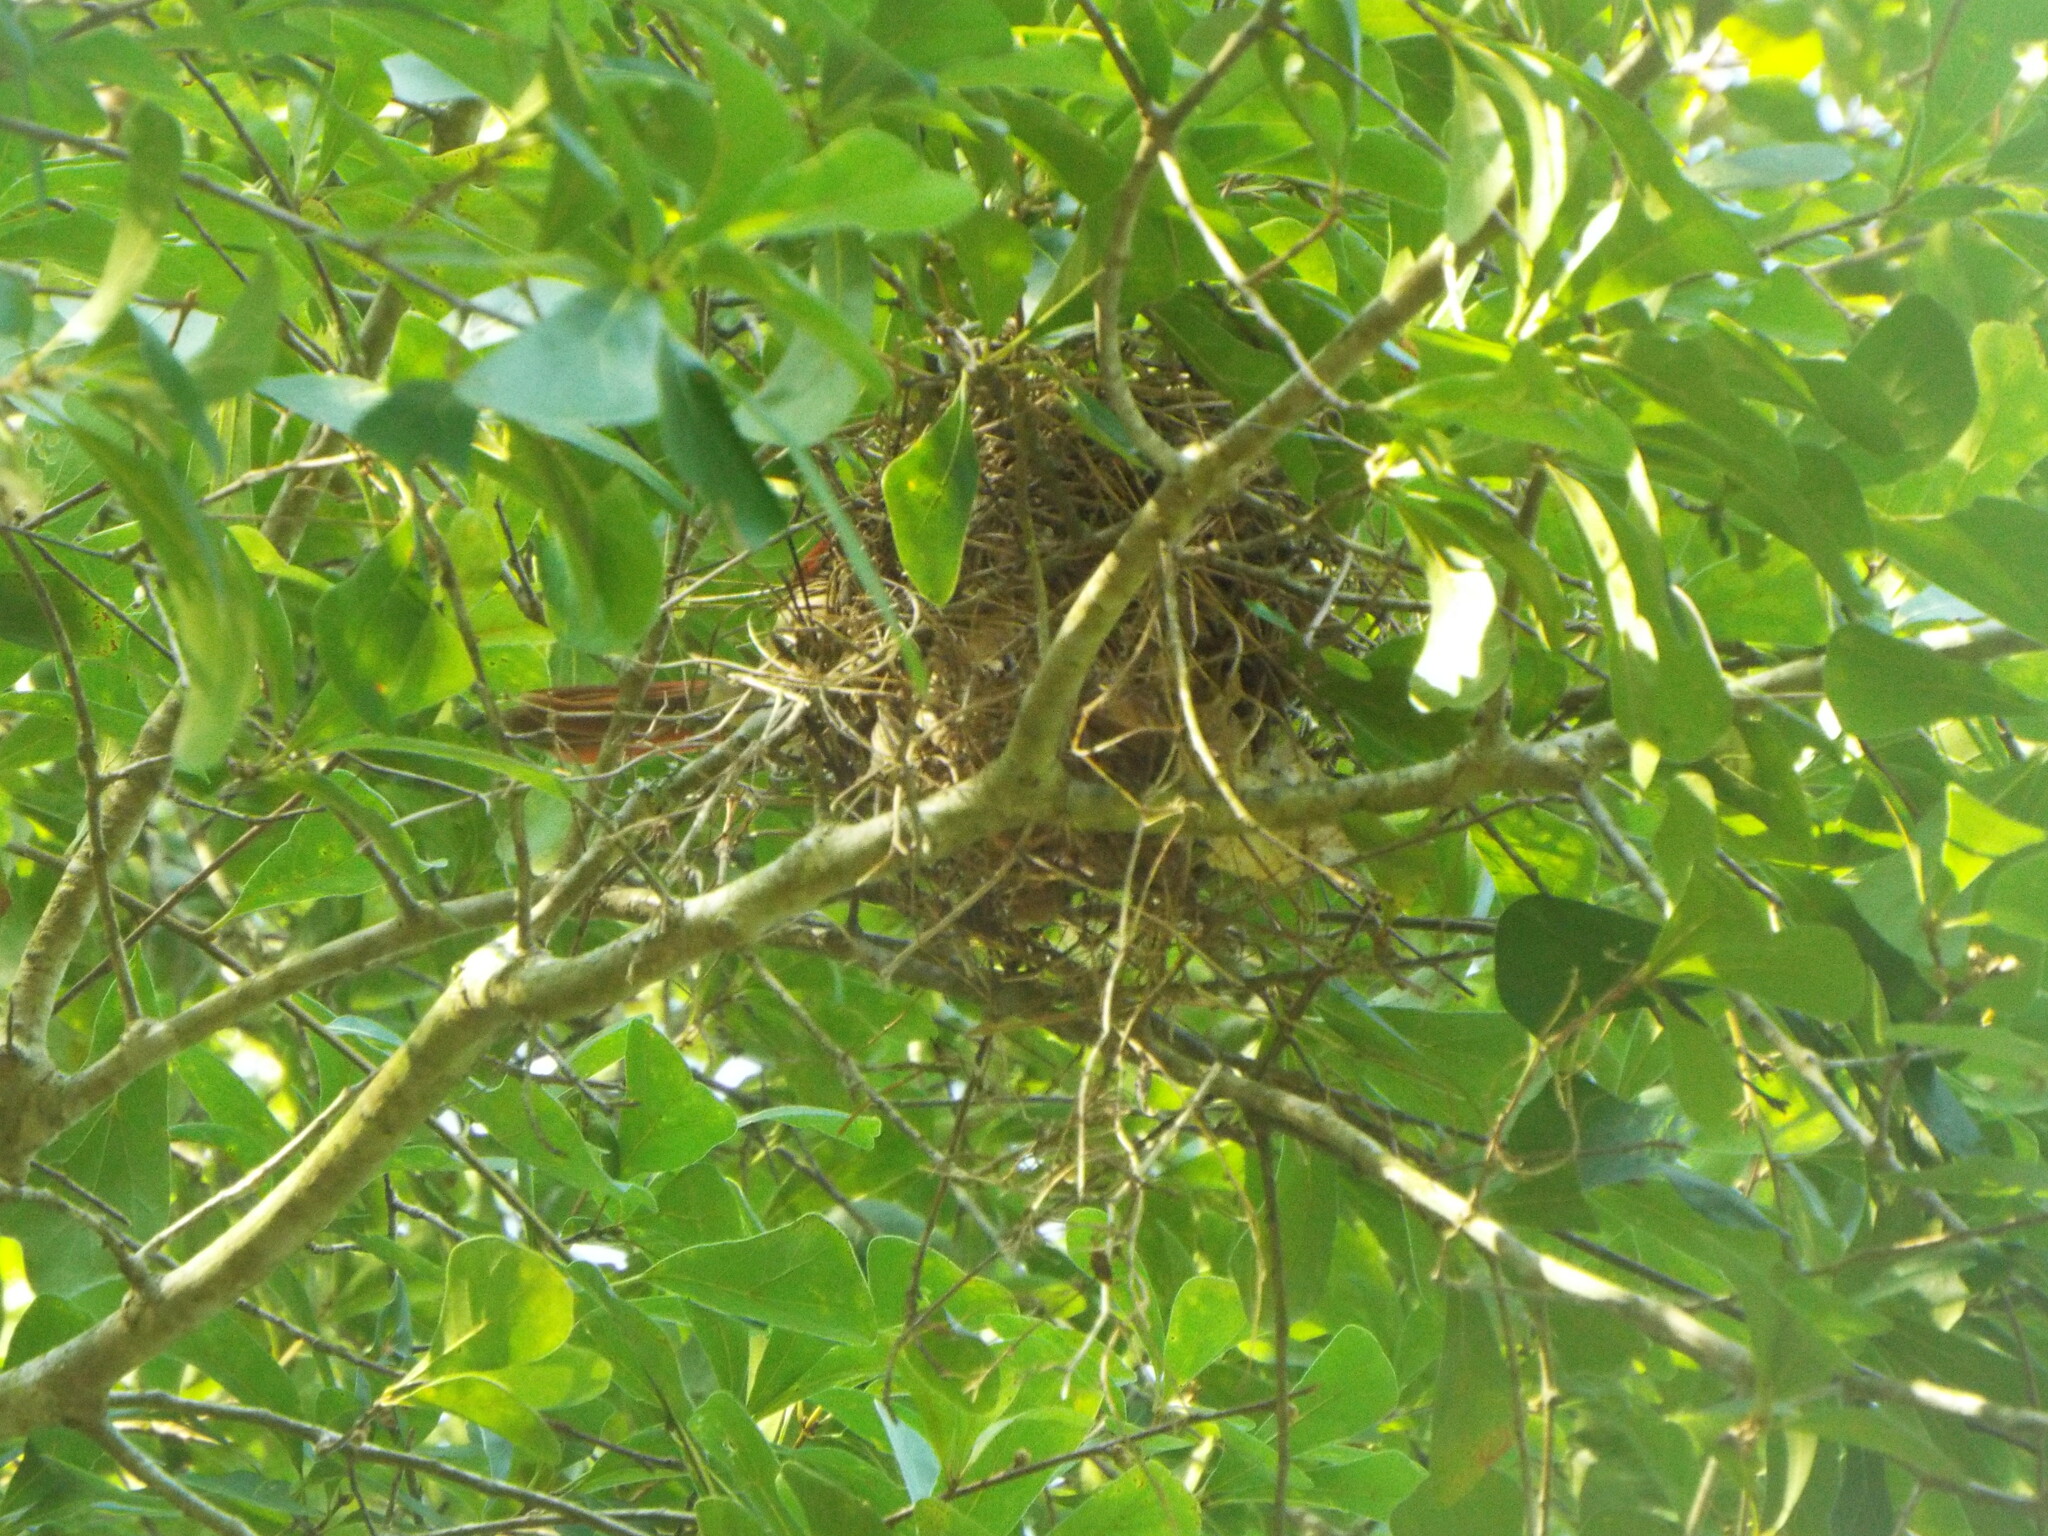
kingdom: Animalia
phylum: Chordata
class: Aves
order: Passeriformes
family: Cardinalidae
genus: Cardinalis
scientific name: Cardinalis cardinalis
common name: Northern cardinal
